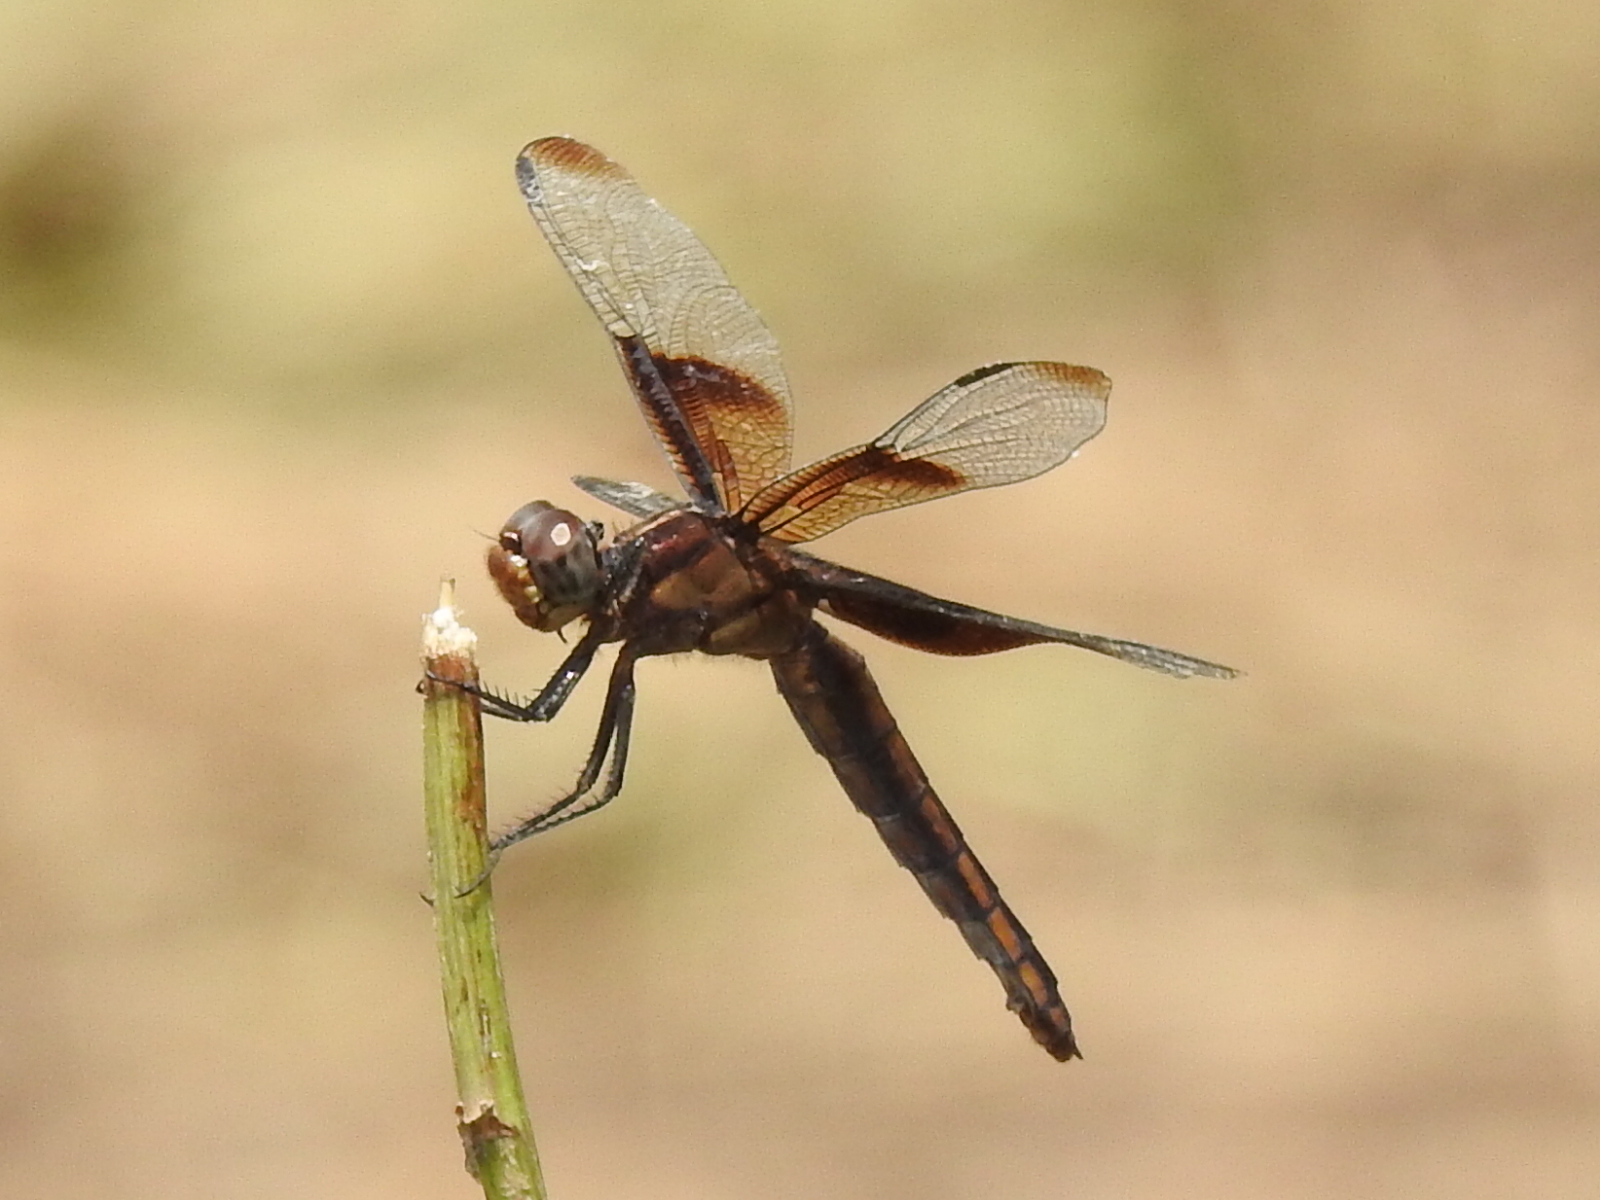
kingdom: Animalia
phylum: Arthropoda
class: Insecta
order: Odonata
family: Libellulidae
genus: Libellula
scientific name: Libellula luctuosa
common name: Widow skimmer
